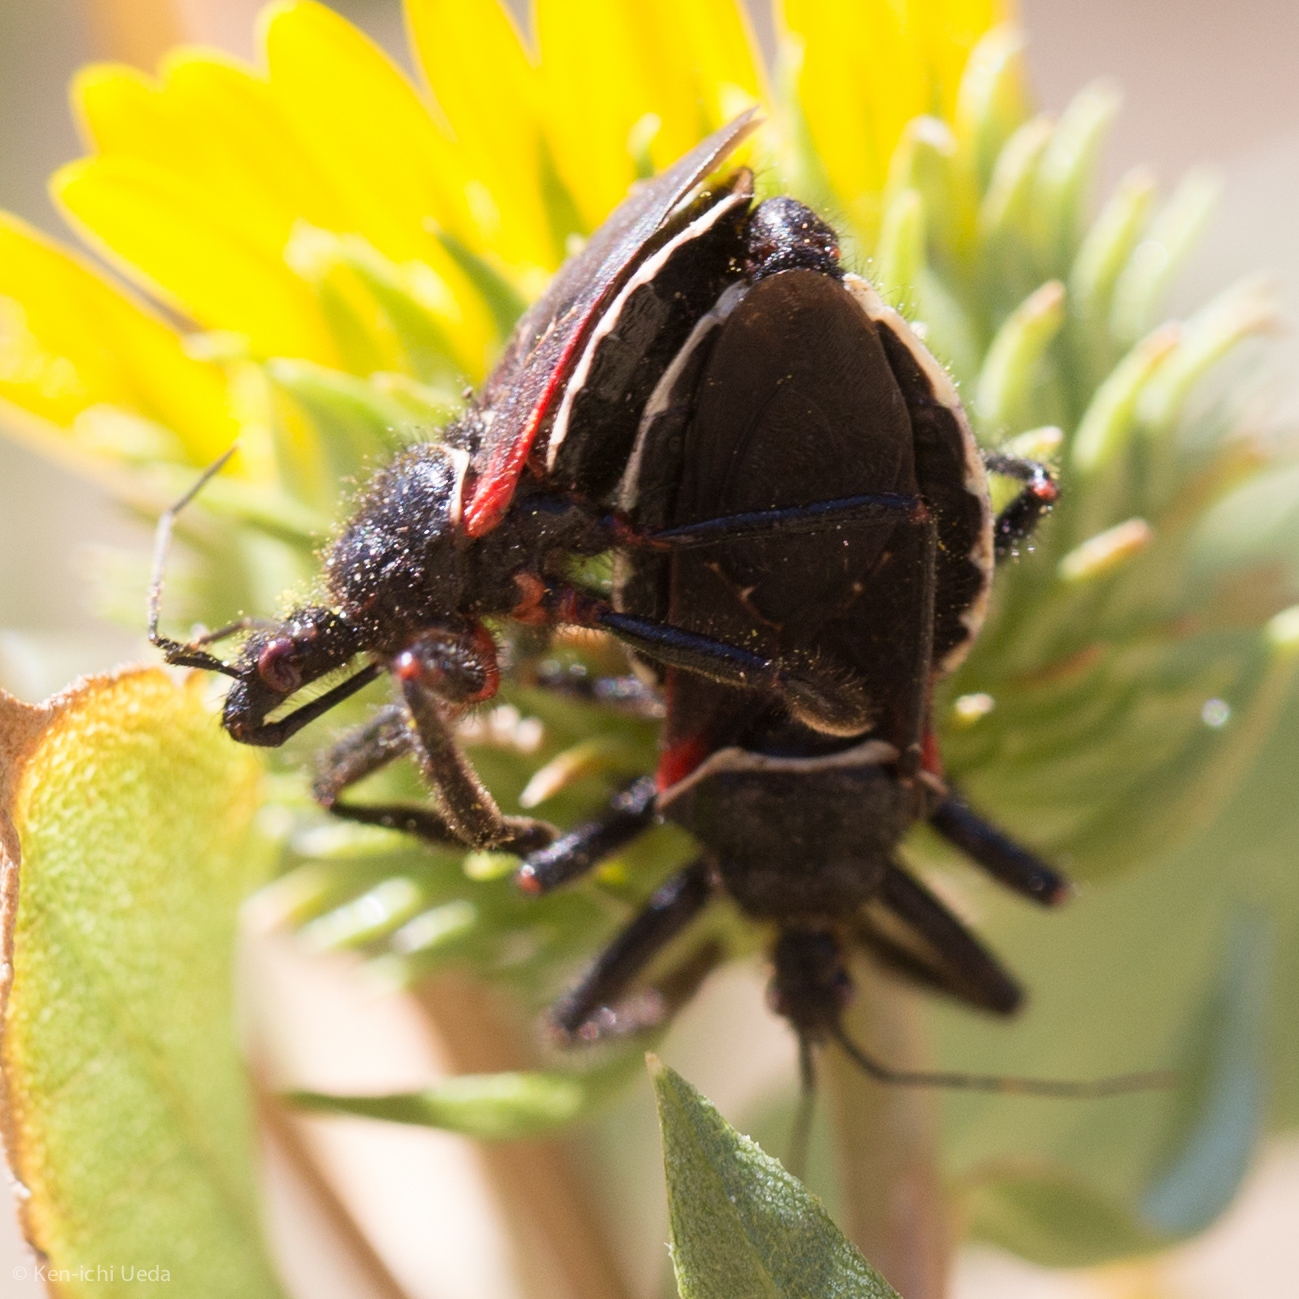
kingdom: Animalia
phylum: Arthropoda
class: Insecta
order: Hemiptera
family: Reduviidae
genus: Apiomerus
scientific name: Apiomerus californicus
